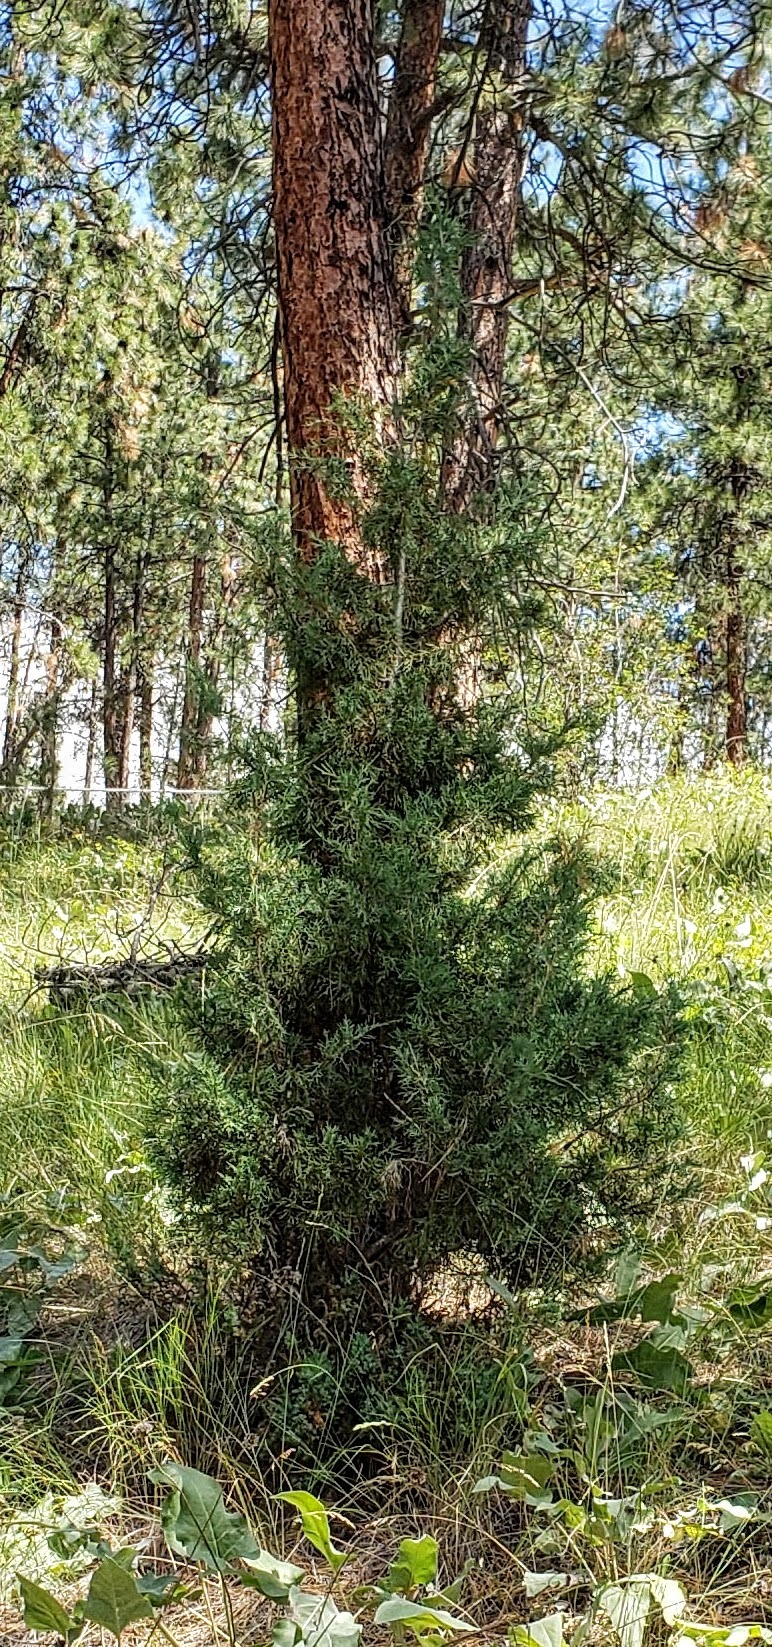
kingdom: Plantae
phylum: Tracheophyta
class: Pinopsida
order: Pinales
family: Cupressaceae
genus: Juniperus
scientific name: Juniperus scopulorum
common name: Rocky mountain juniper
